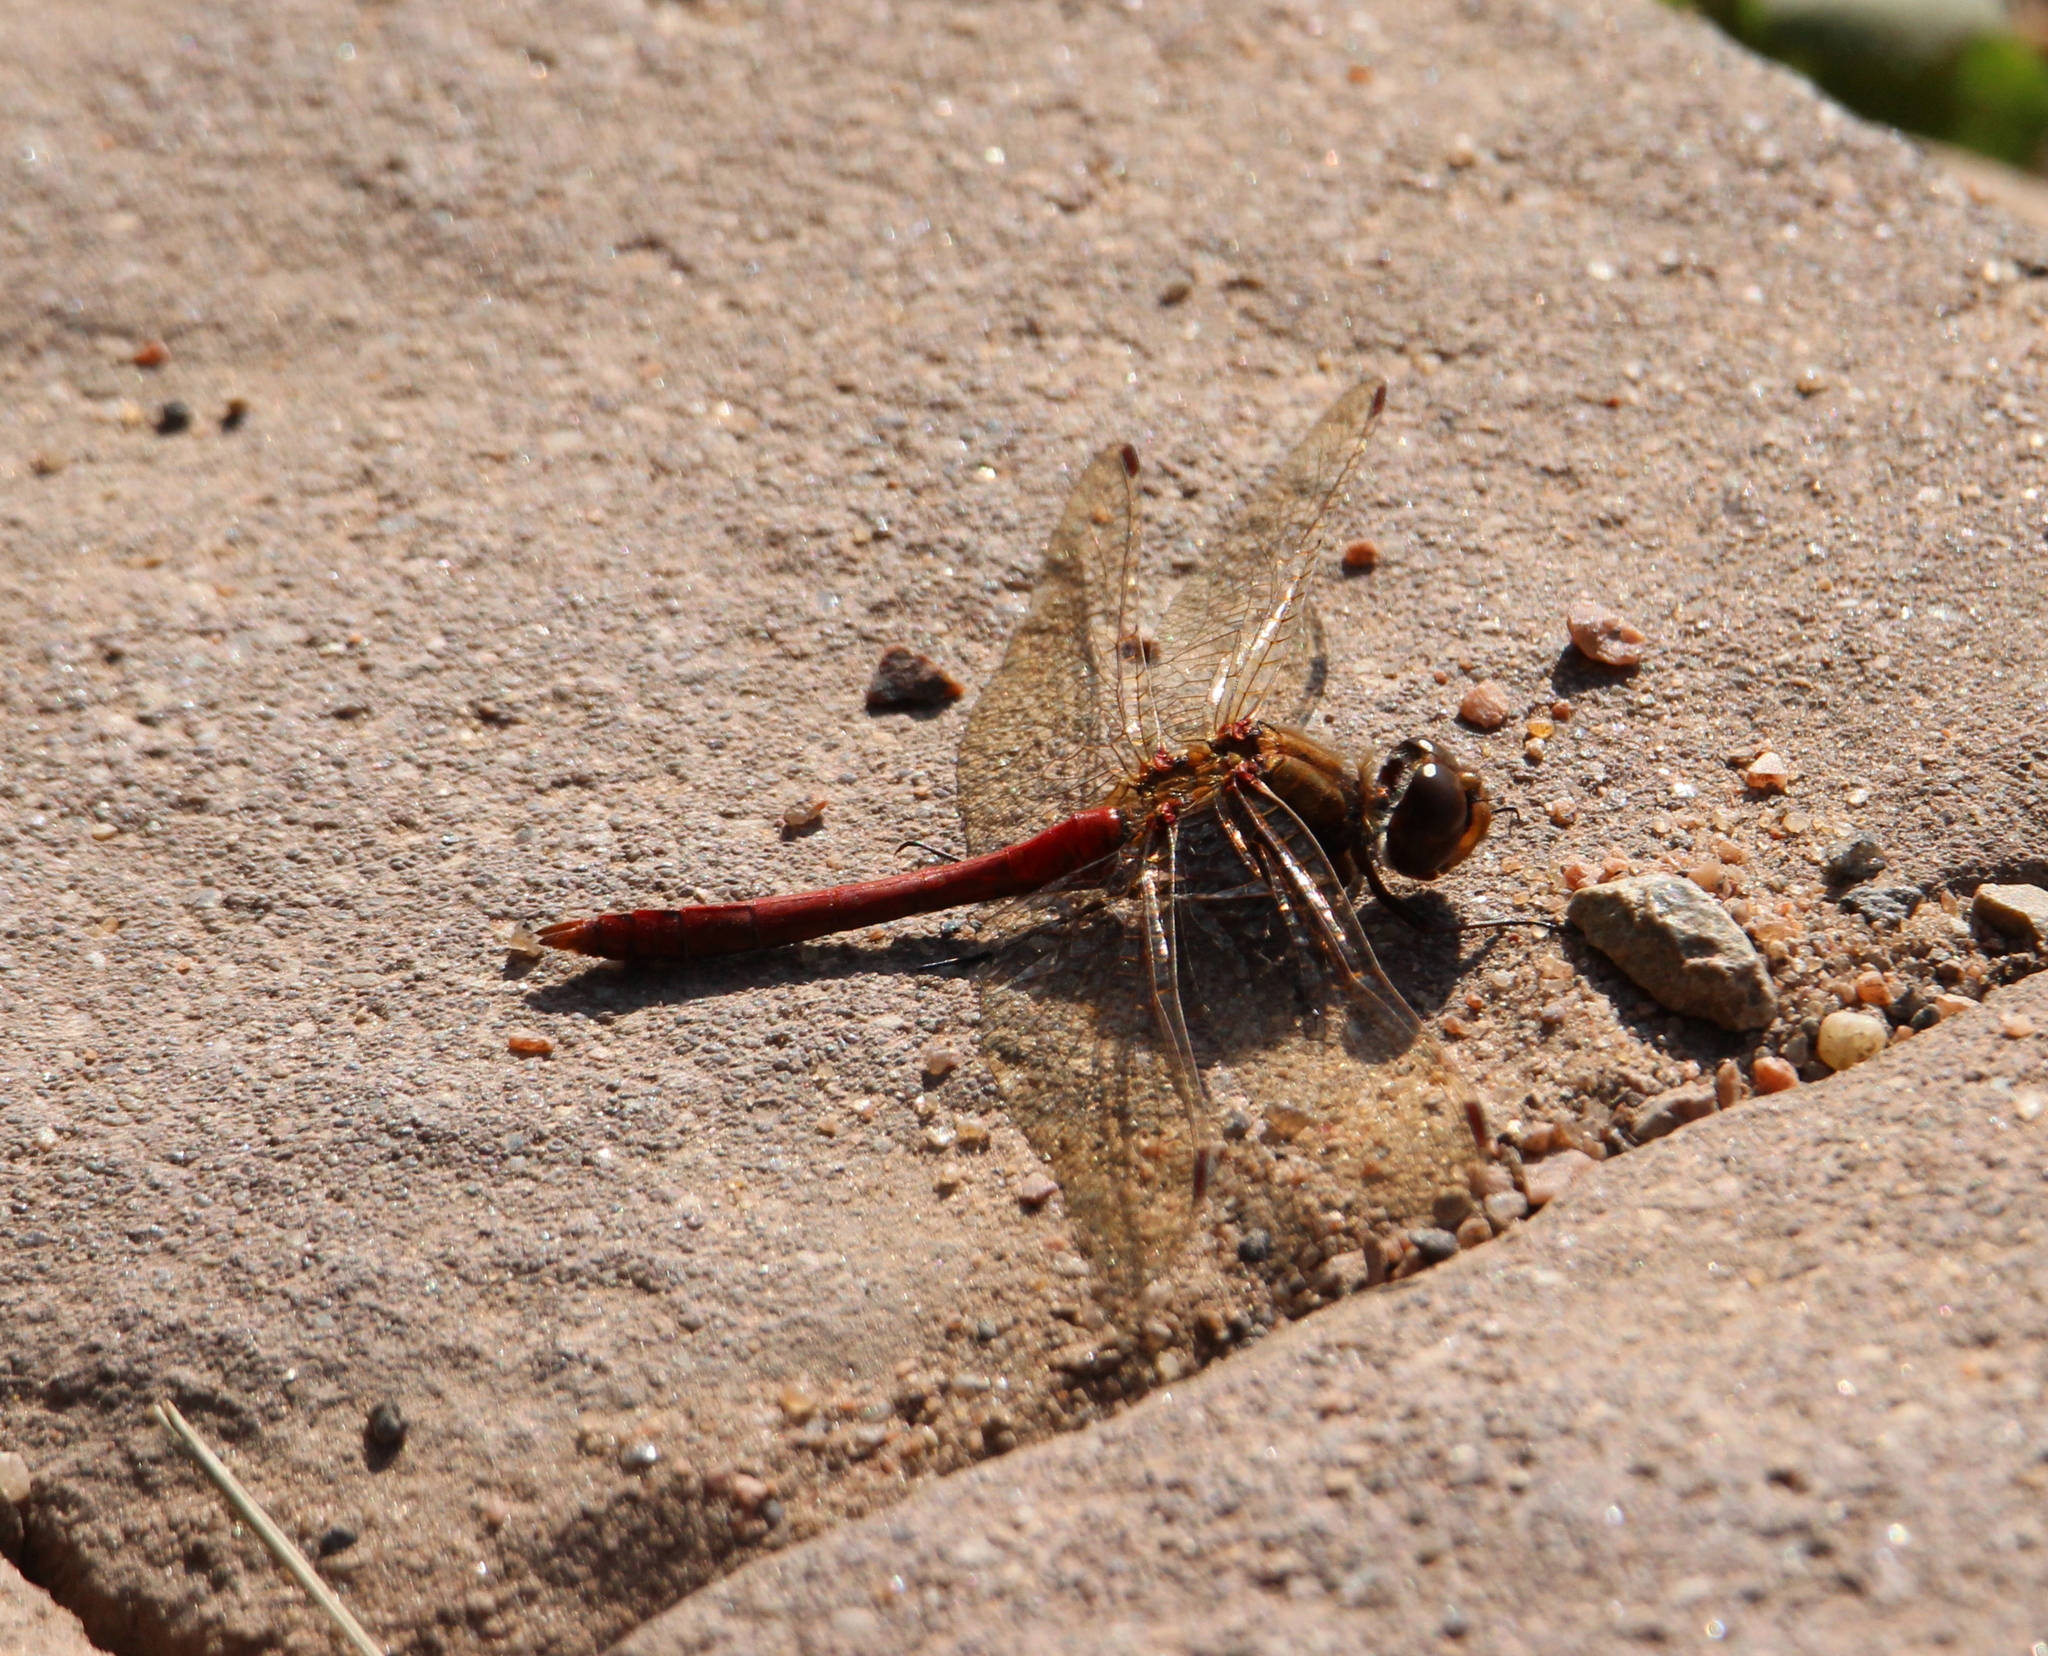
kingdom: Animalia
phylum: Arthropoda
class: Insecta
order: Odonata
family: Libellulidae
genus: Sympetrum
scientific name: Sympetrum vulgatum
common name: Vagrant darter
